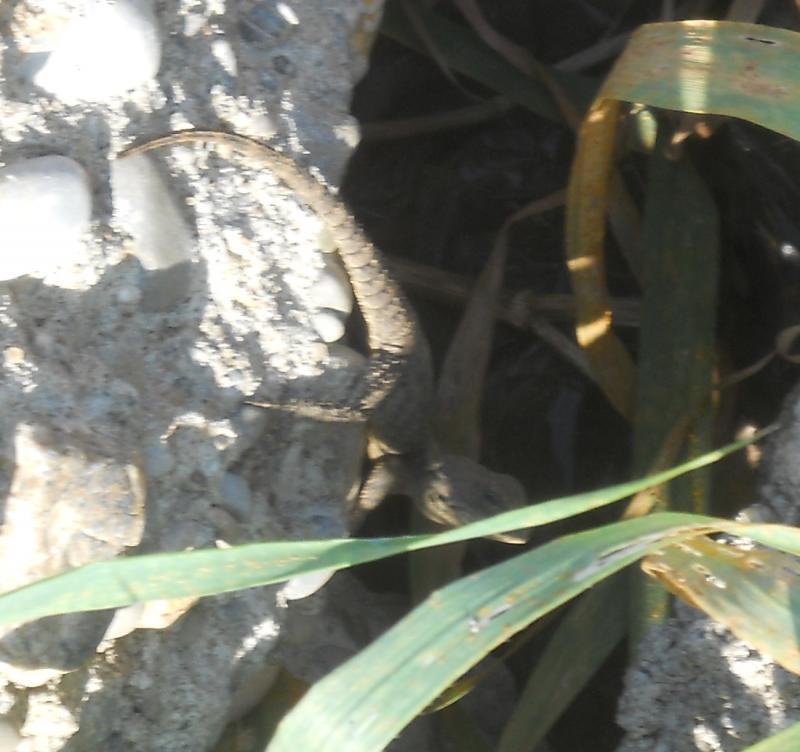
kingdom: Animalia
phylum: Chordata
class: Squamata
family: Agamidae
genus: Stellagama
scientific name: Stellagama stellio
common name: Starred agama
